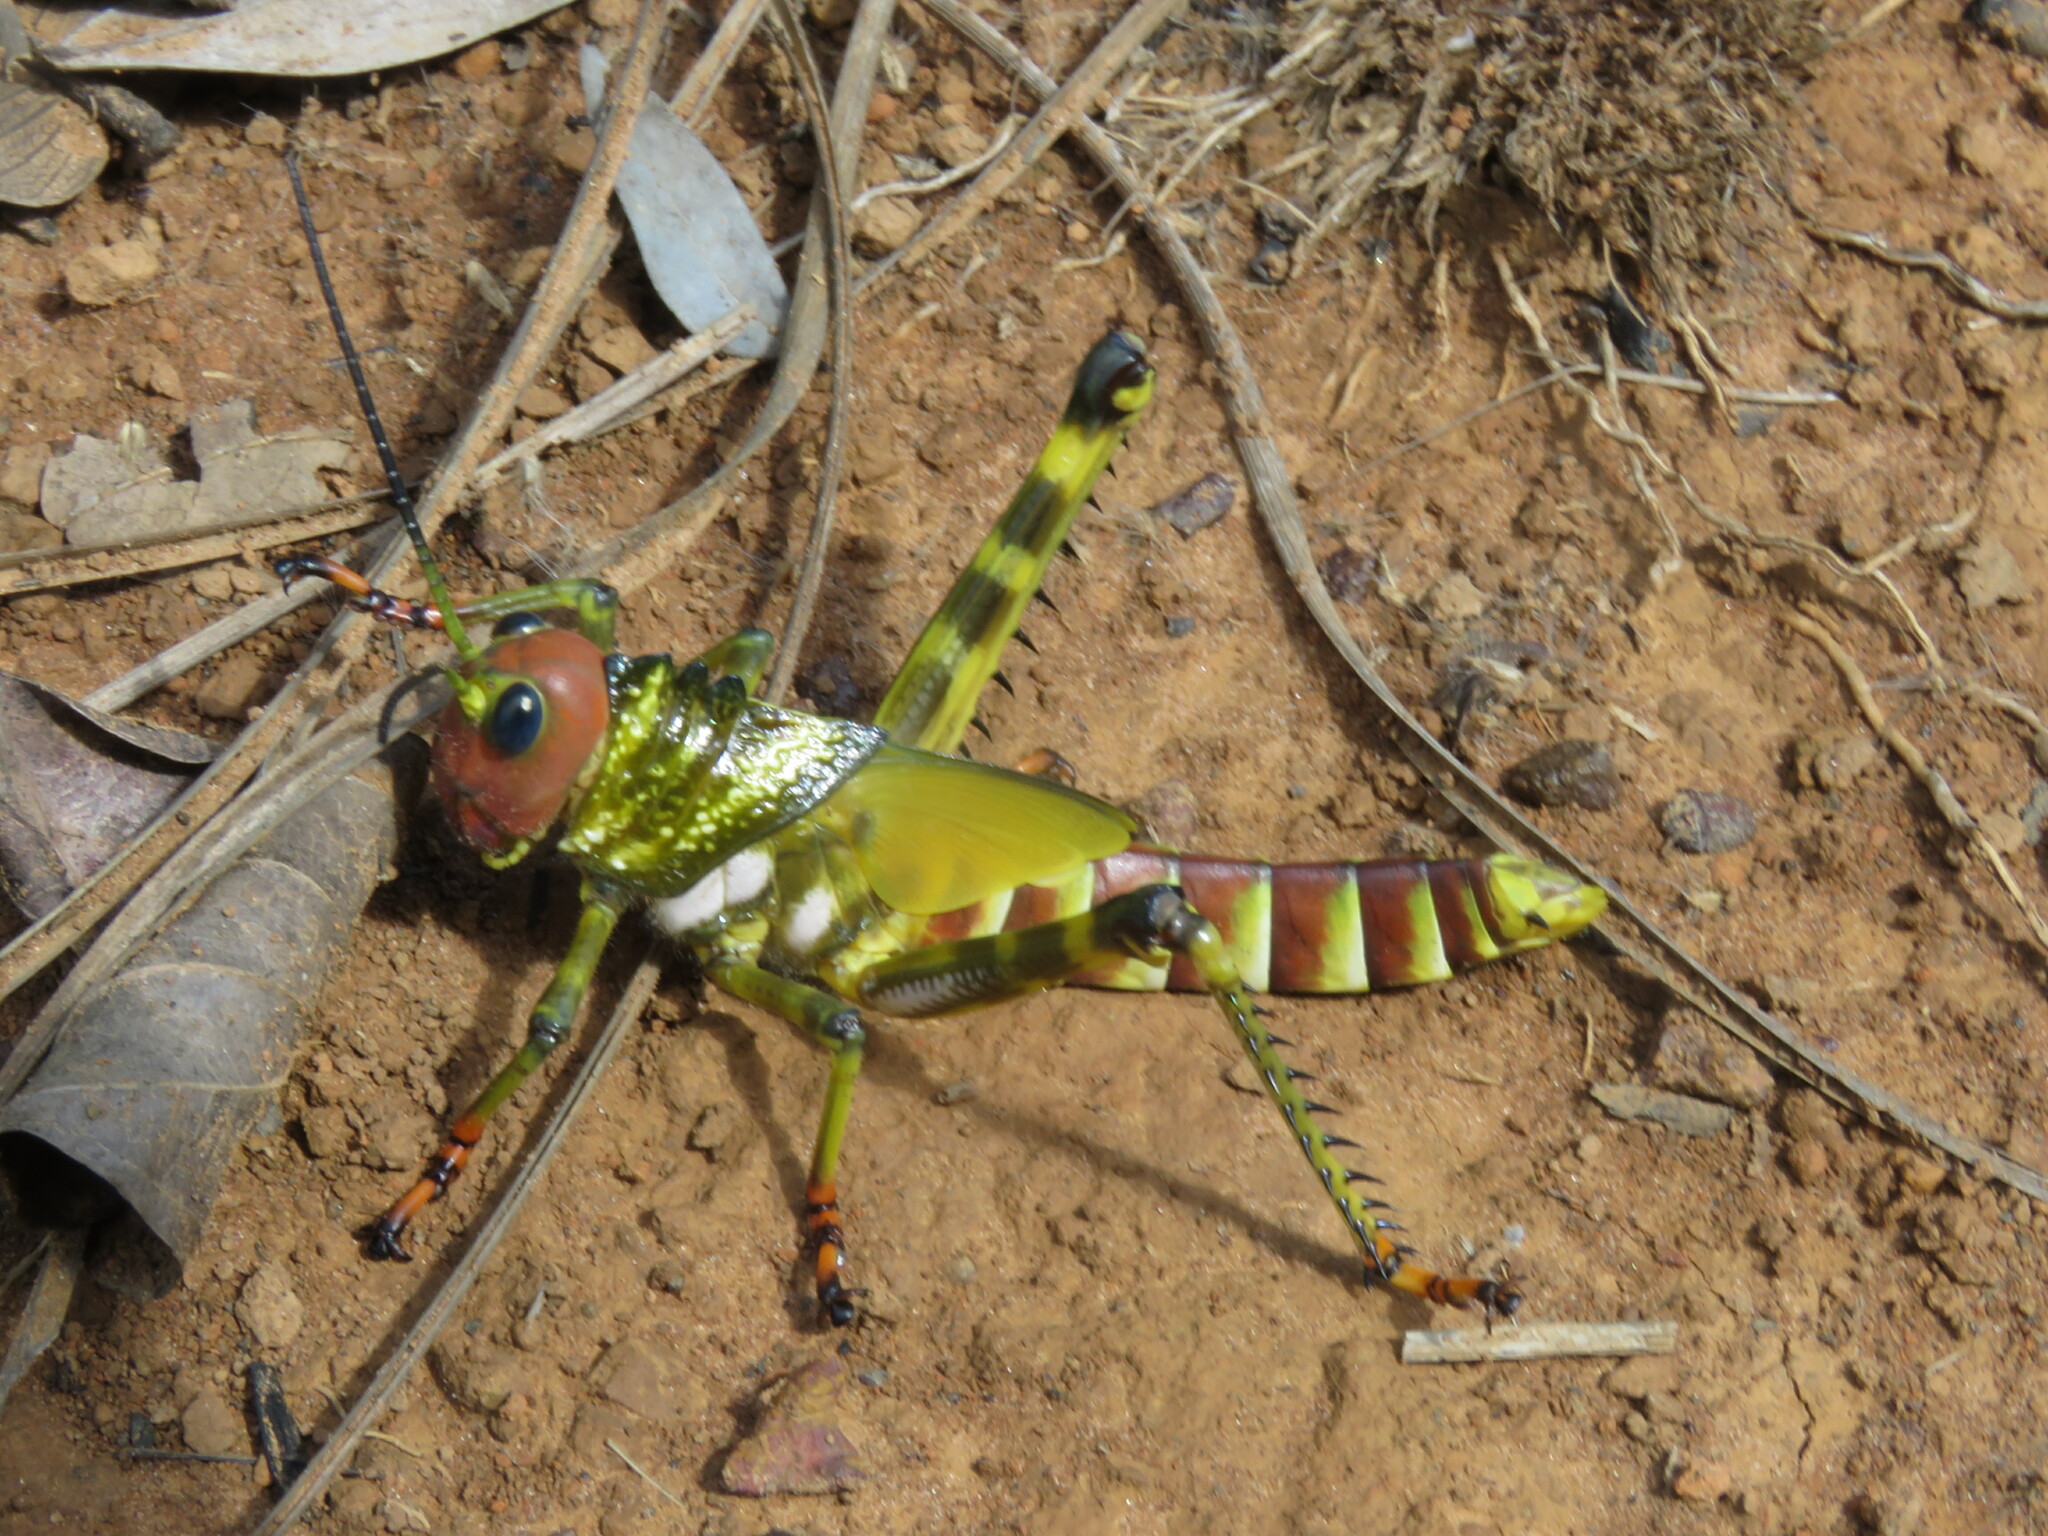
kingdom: Animalia
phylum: Arthropoda
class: Insecta
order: Orthoptera
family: Romaleidae
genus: Tropidacris
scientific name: Tropidacris cristata
